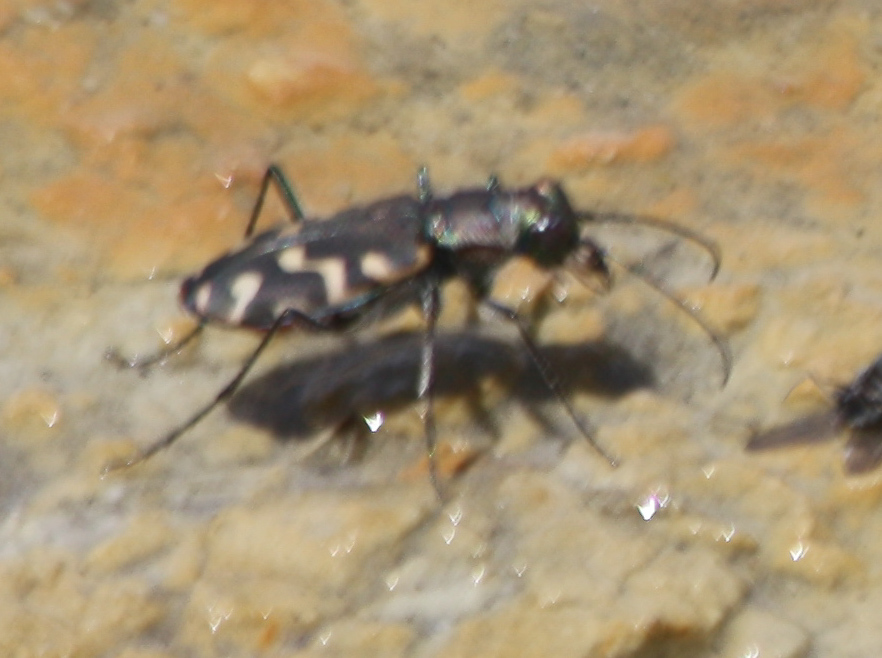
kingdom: Animalia
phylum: Arthropoda
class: Insecta
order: Coleoptera
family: Carabidae
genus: Cicindela
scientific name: Cicindela hemorrhagica
